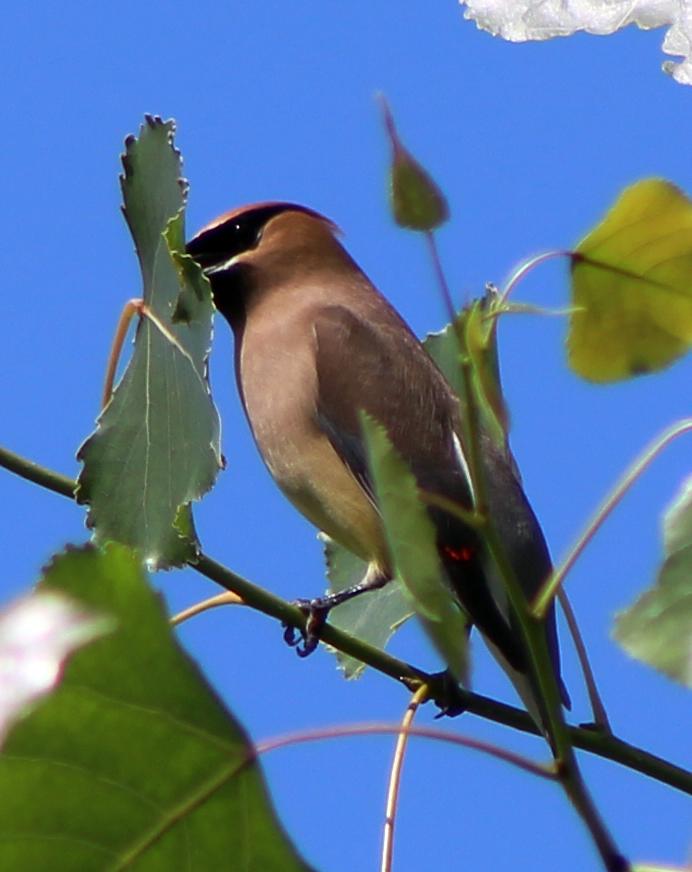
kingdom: Animalia
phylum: Chordata
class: Aves
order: Passeriformes
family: Bombycillidae
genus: Bombycilla
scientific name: Bombycilla cedrorum
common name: Cedar waxwing
